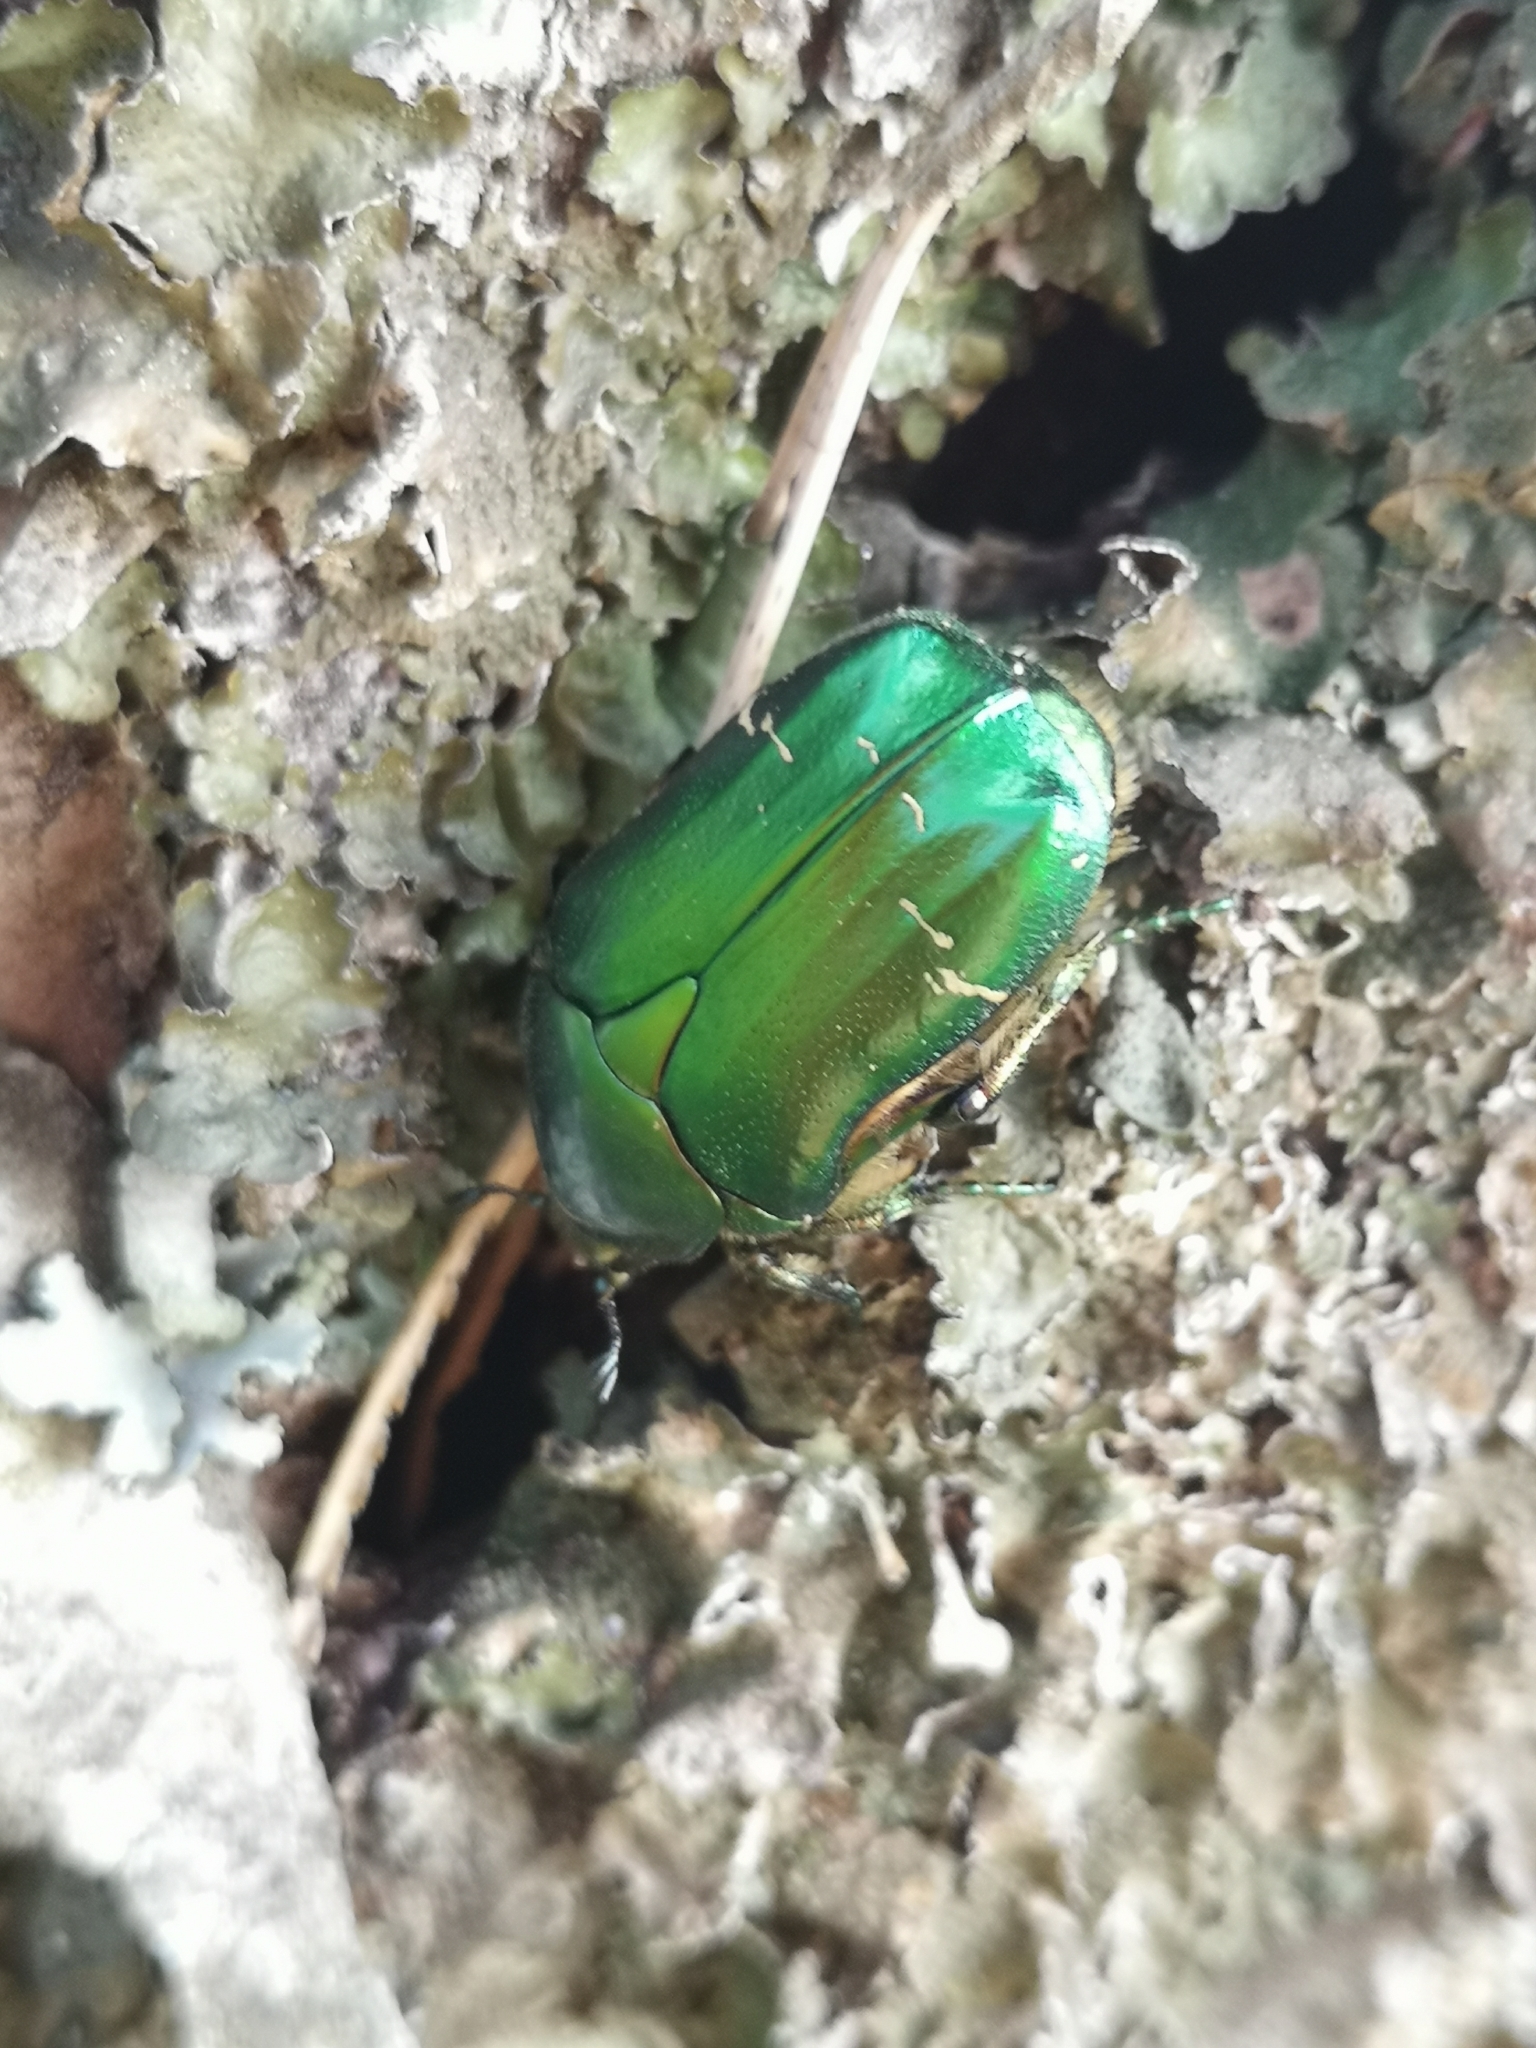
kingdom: Animalia
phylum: Arthropoda
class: Insecta
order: Coleoptera
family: Scarabaeidae
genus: Cetonia
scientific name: Cetonia aurata
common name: Rose chafer
